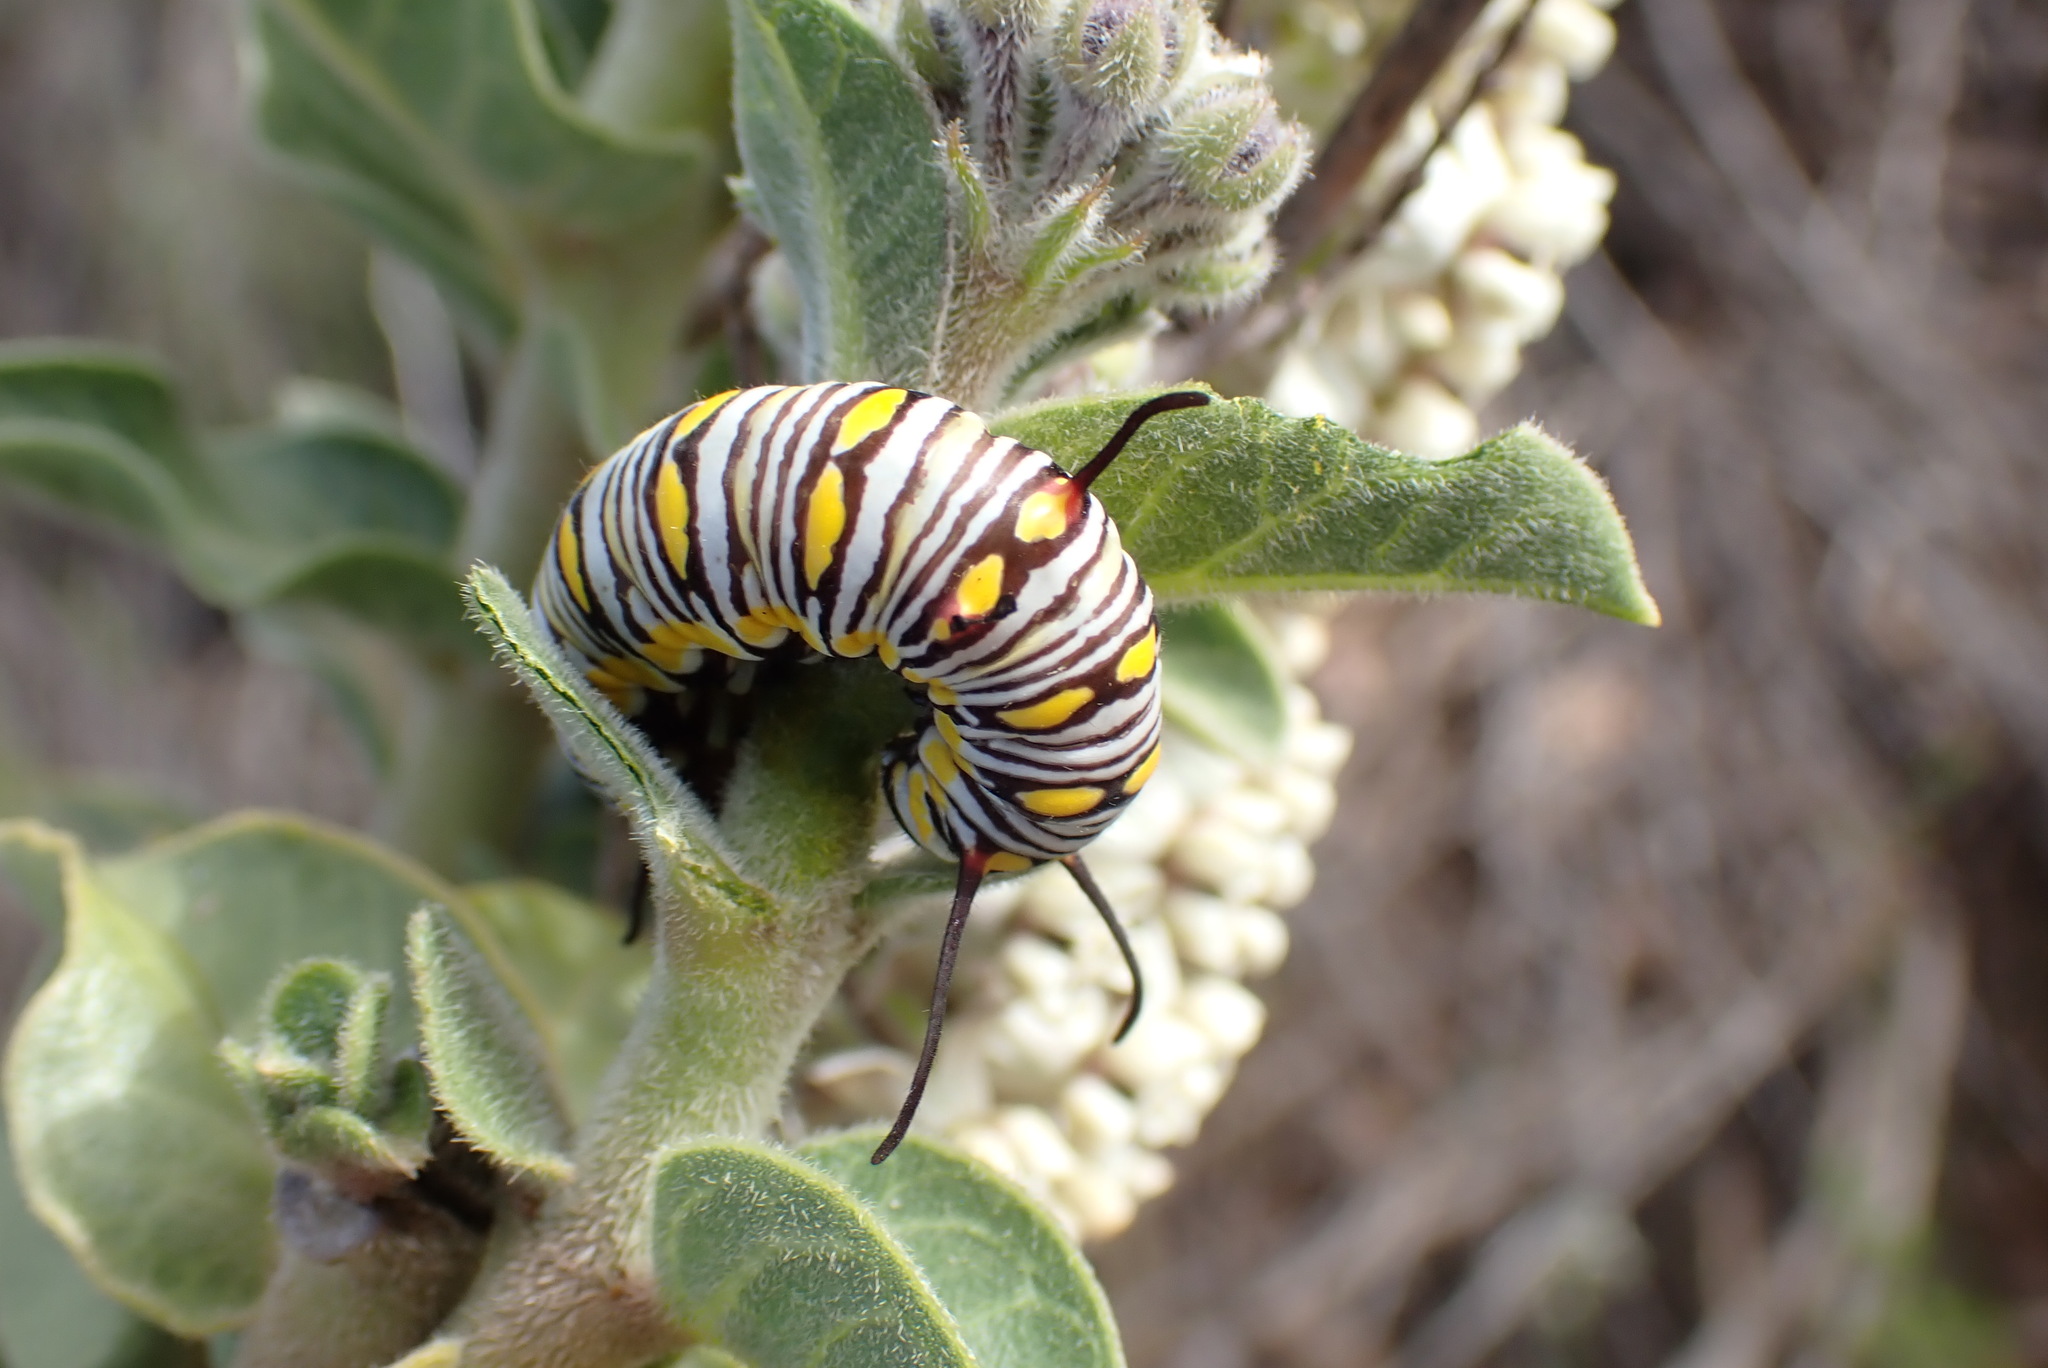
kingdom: Animalia
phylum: Arthropoda
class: Insecta
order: Lepidoptera
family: Nymphalidae
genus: Danaus
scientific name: Danaus chrysippus
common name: Plain tiger
